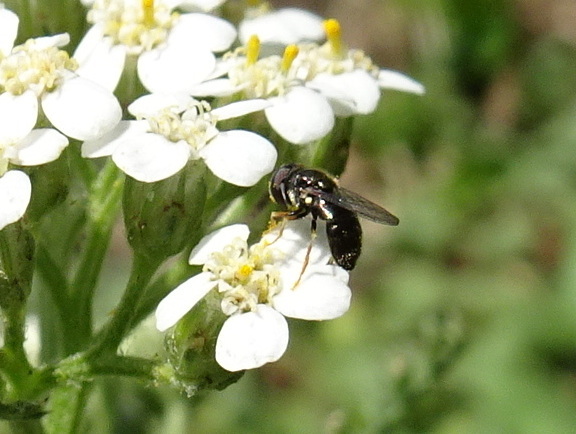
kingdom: Animalia
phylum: Arthropoda
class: Insecta
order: Diptera
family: Syrphidae
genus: Paragus
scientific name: Paragus haemorrhous
